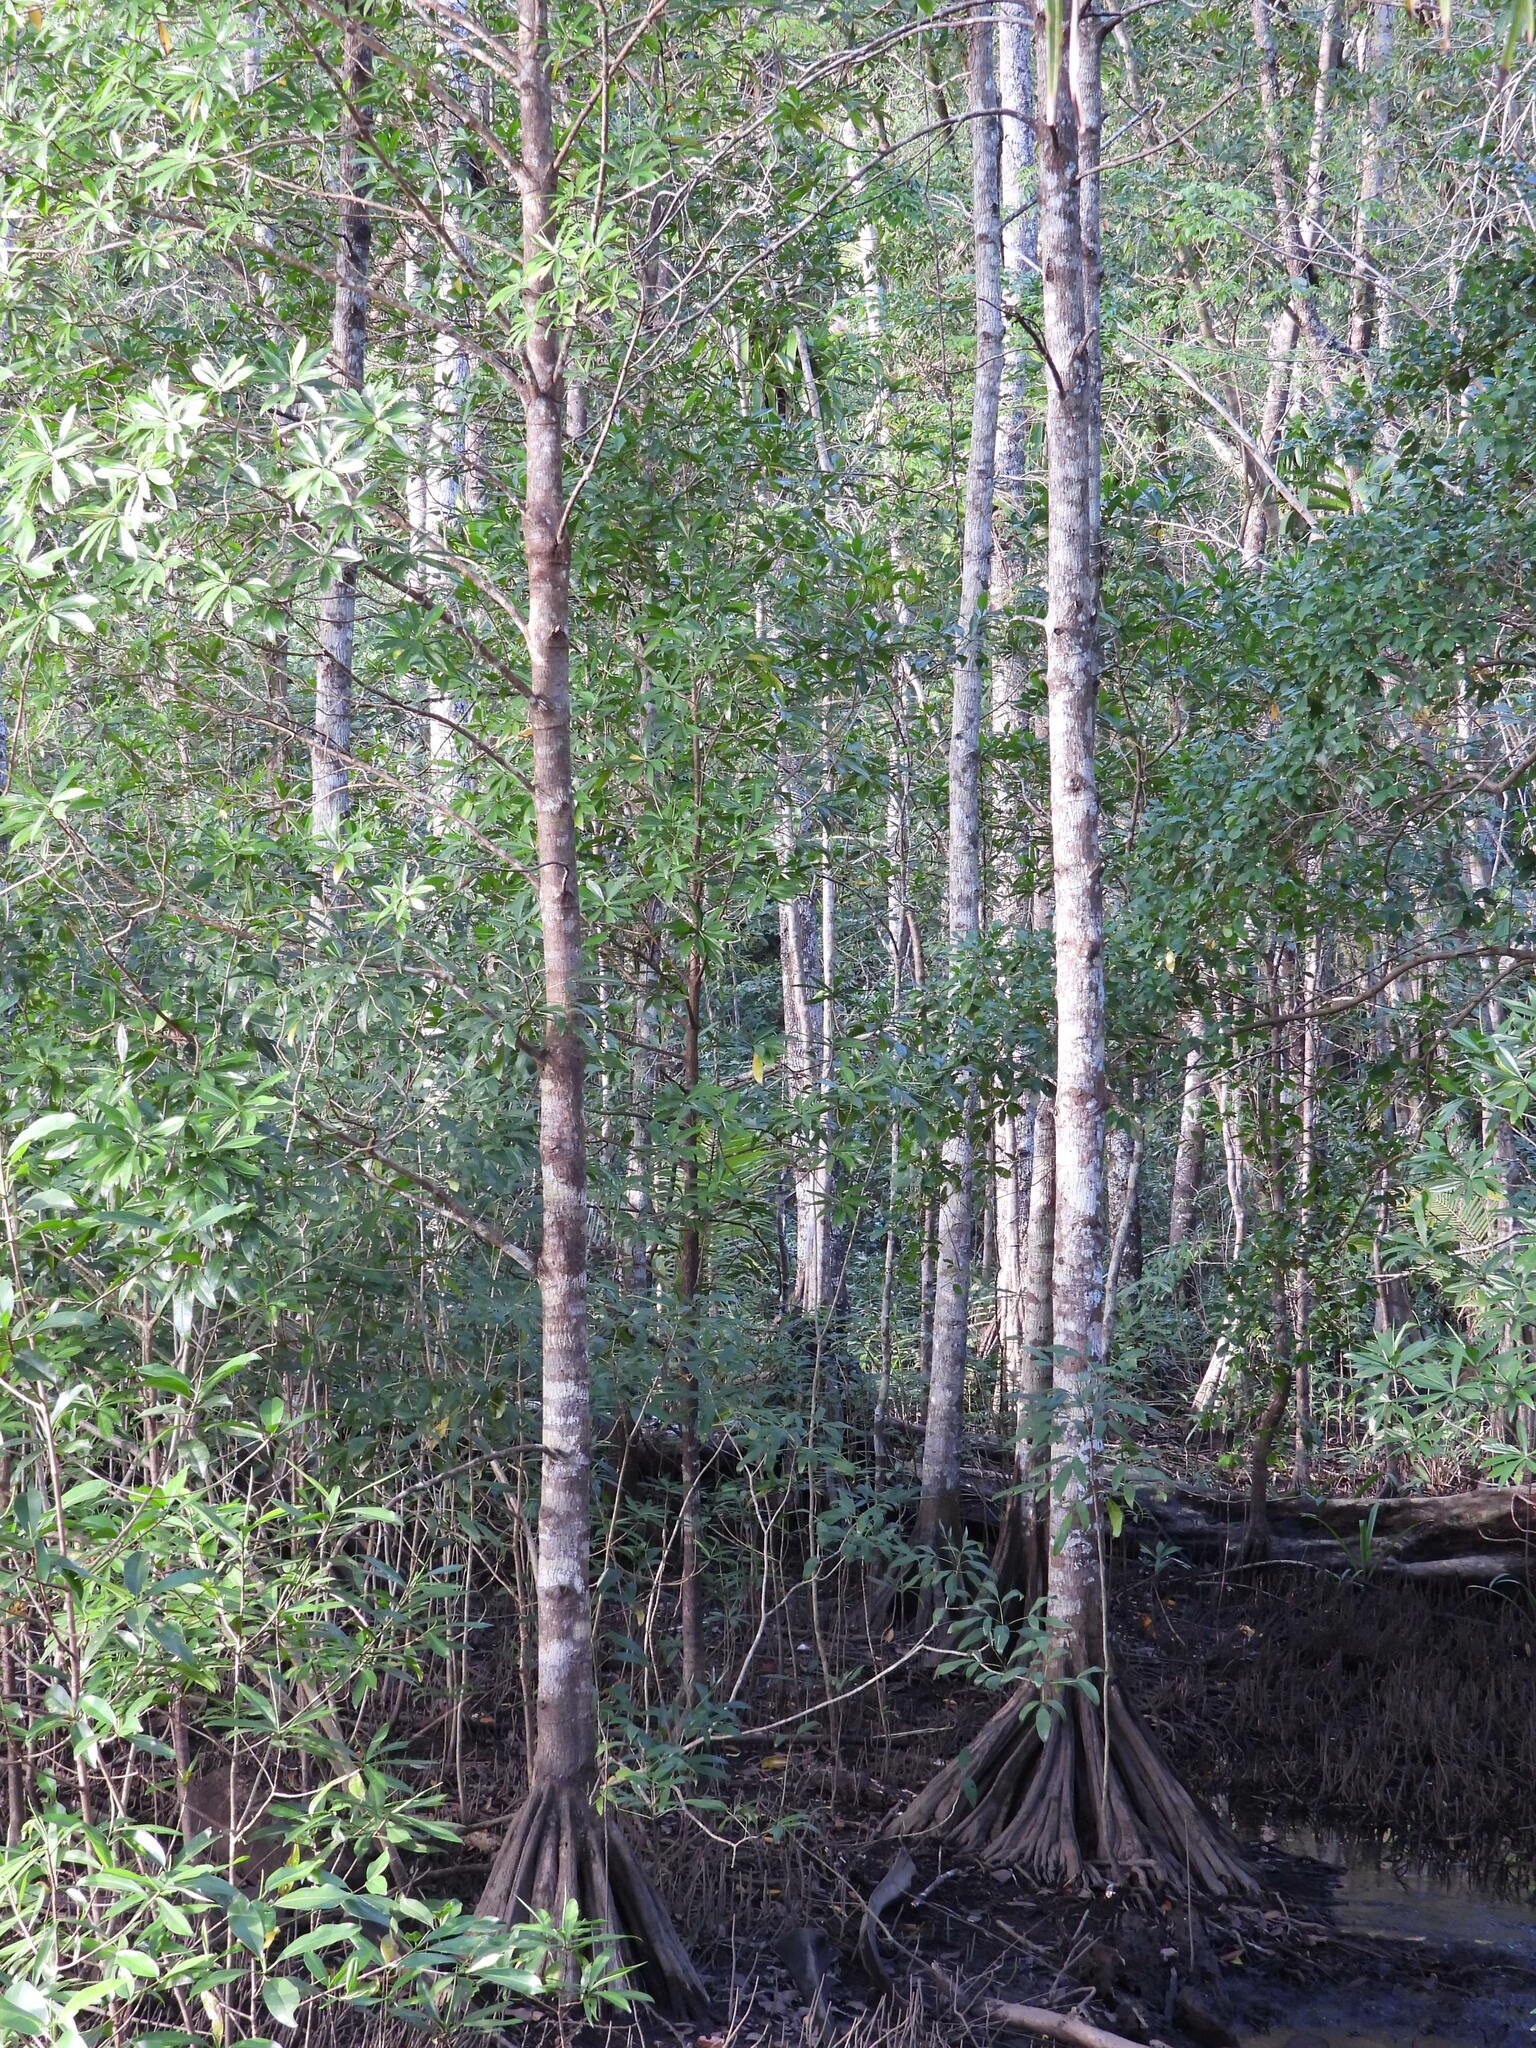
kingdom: Plantae
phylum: Tracheophyta
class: Magnoliopsida
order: Ericales
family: Tetrameristaceae
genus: Pelliciera
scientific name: Pelliciera rhizophorae
